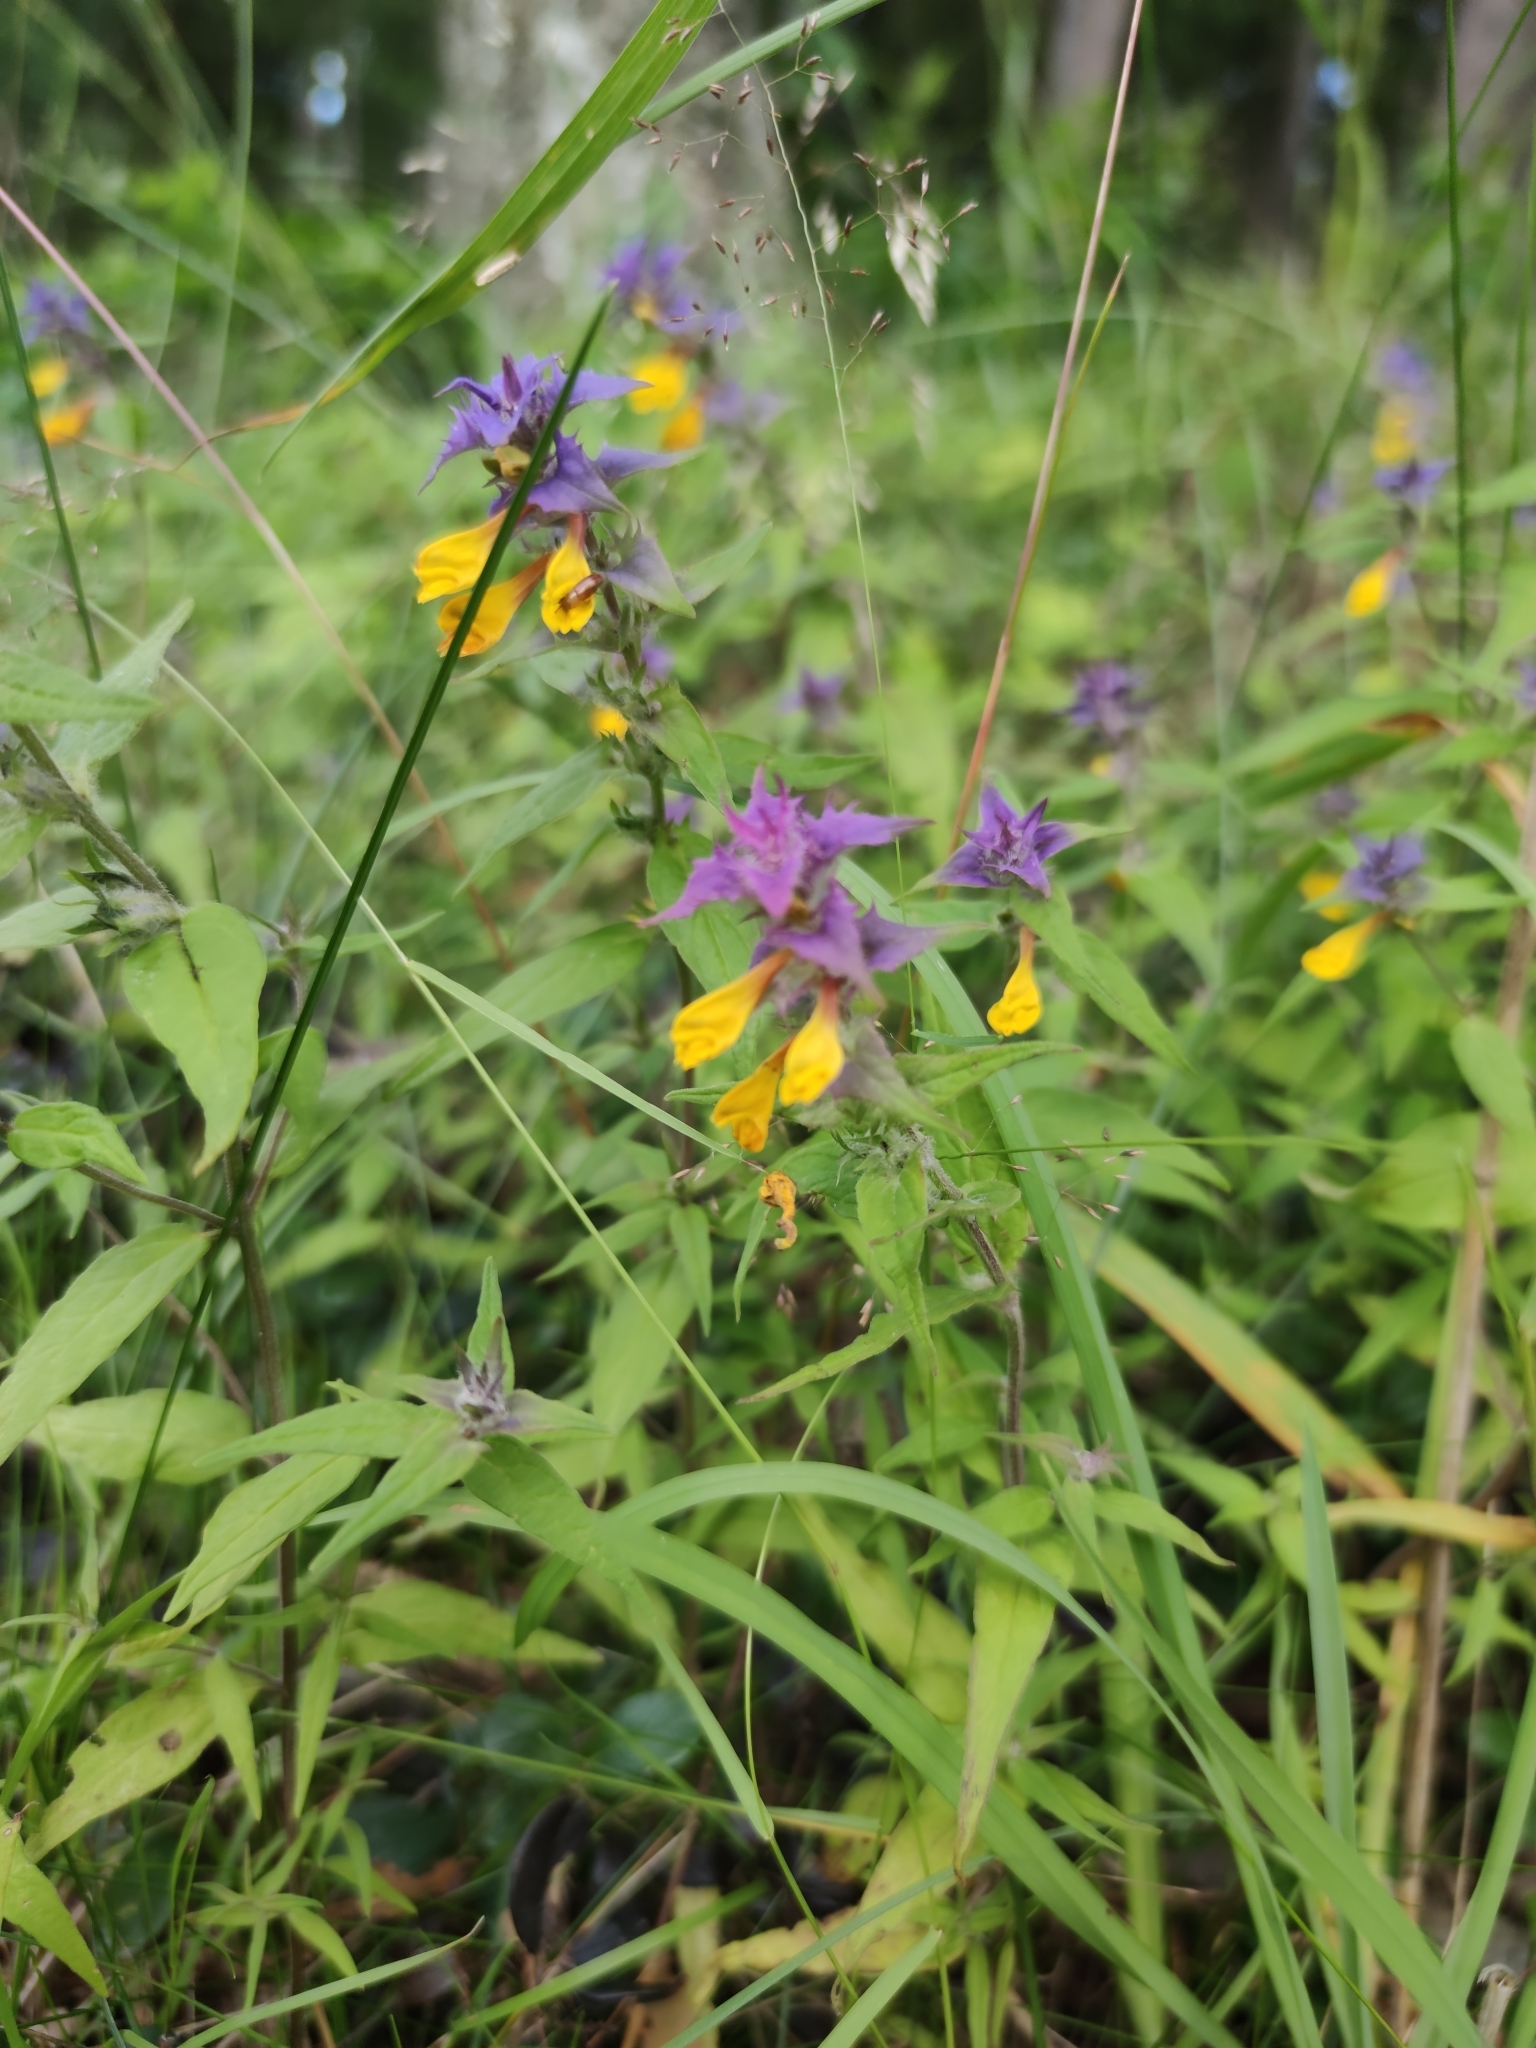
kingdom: Plantae
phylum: Tracheophyta
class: Magnoliopsida
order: Lamiales
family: Orobanchaceae
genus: Melampyrum
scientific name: Melampyrum nemorosum
